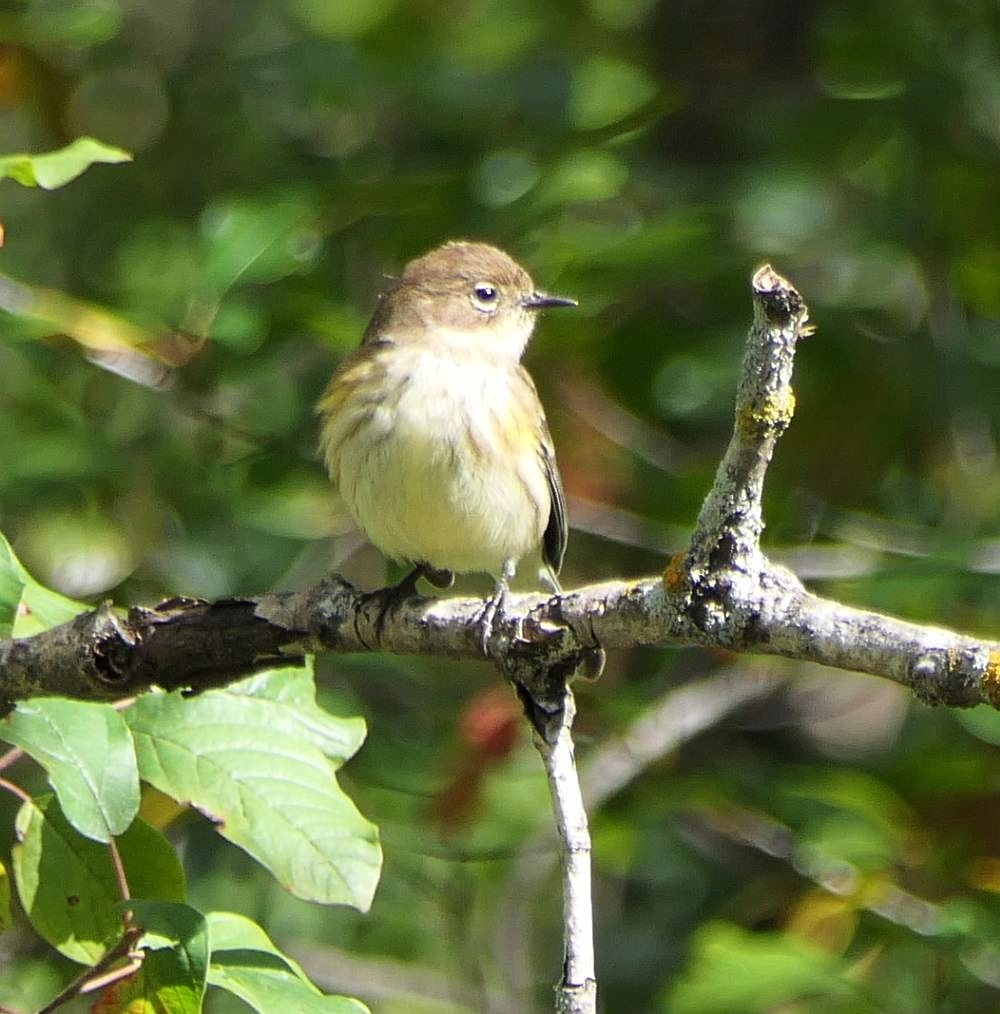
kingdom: Animalia
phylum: Chordata
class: Aves
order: Passeriformes
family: Parulidae
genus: Setophaga
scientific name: Setophaga coronata
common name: Myrtle warbler
